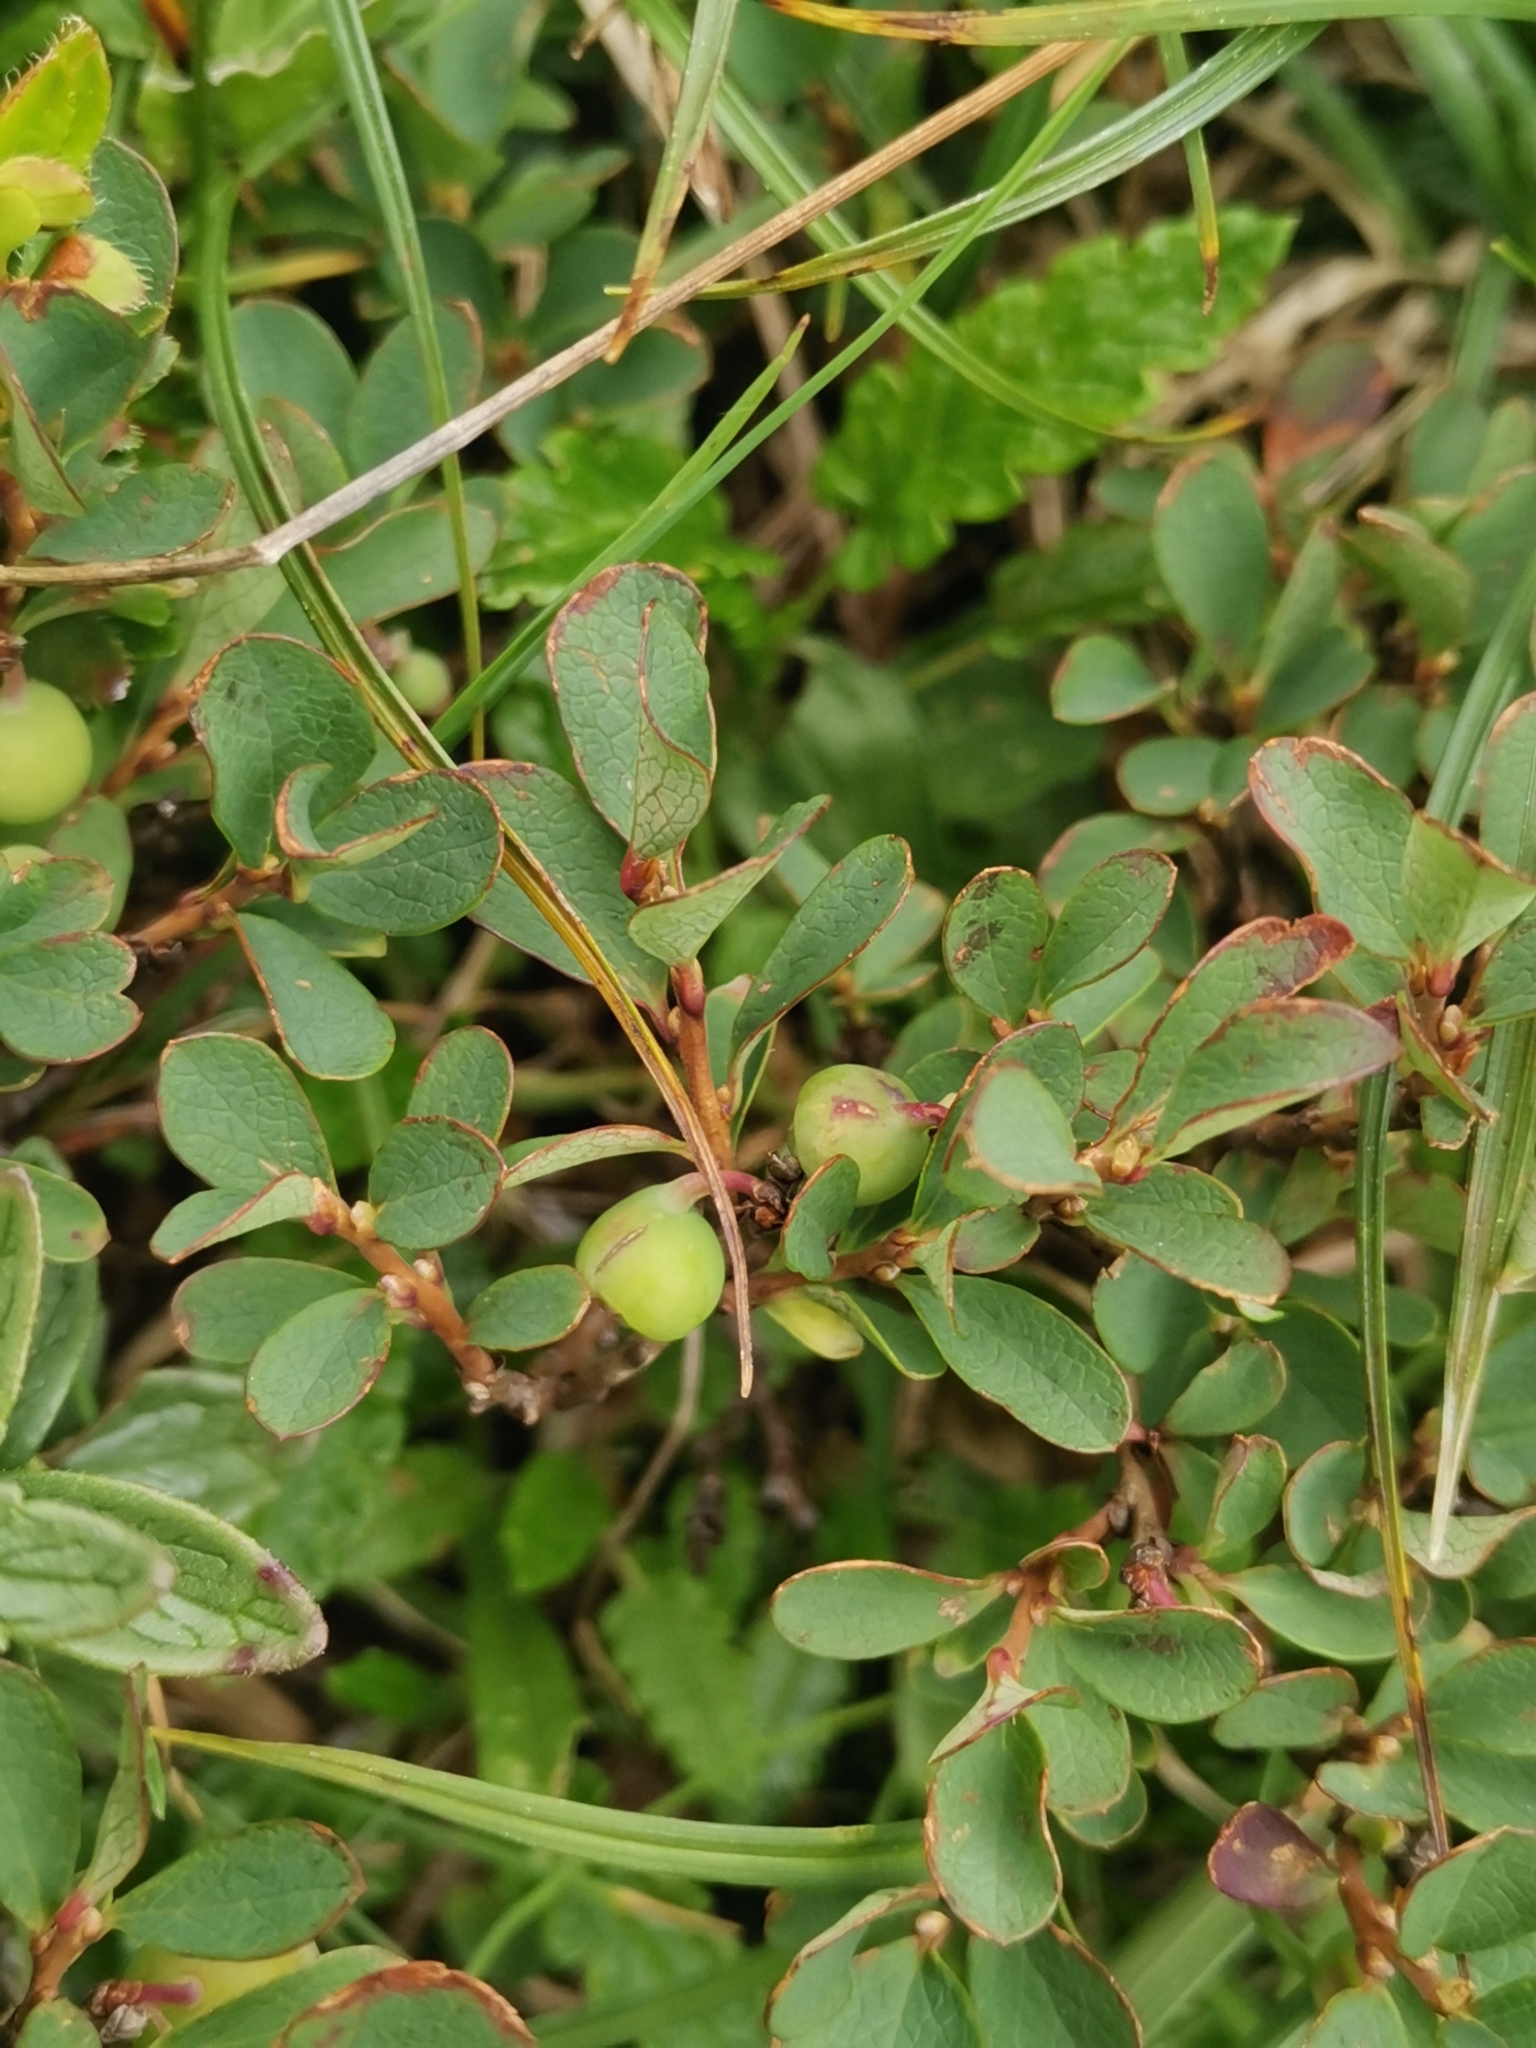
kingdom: Plantae
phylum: Tracheophyta
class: Magnoliopsida
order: Ericales
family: Ericaceae
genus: Vaccinium
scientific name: Vaccinium uliginosum
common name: Bog bilberry
